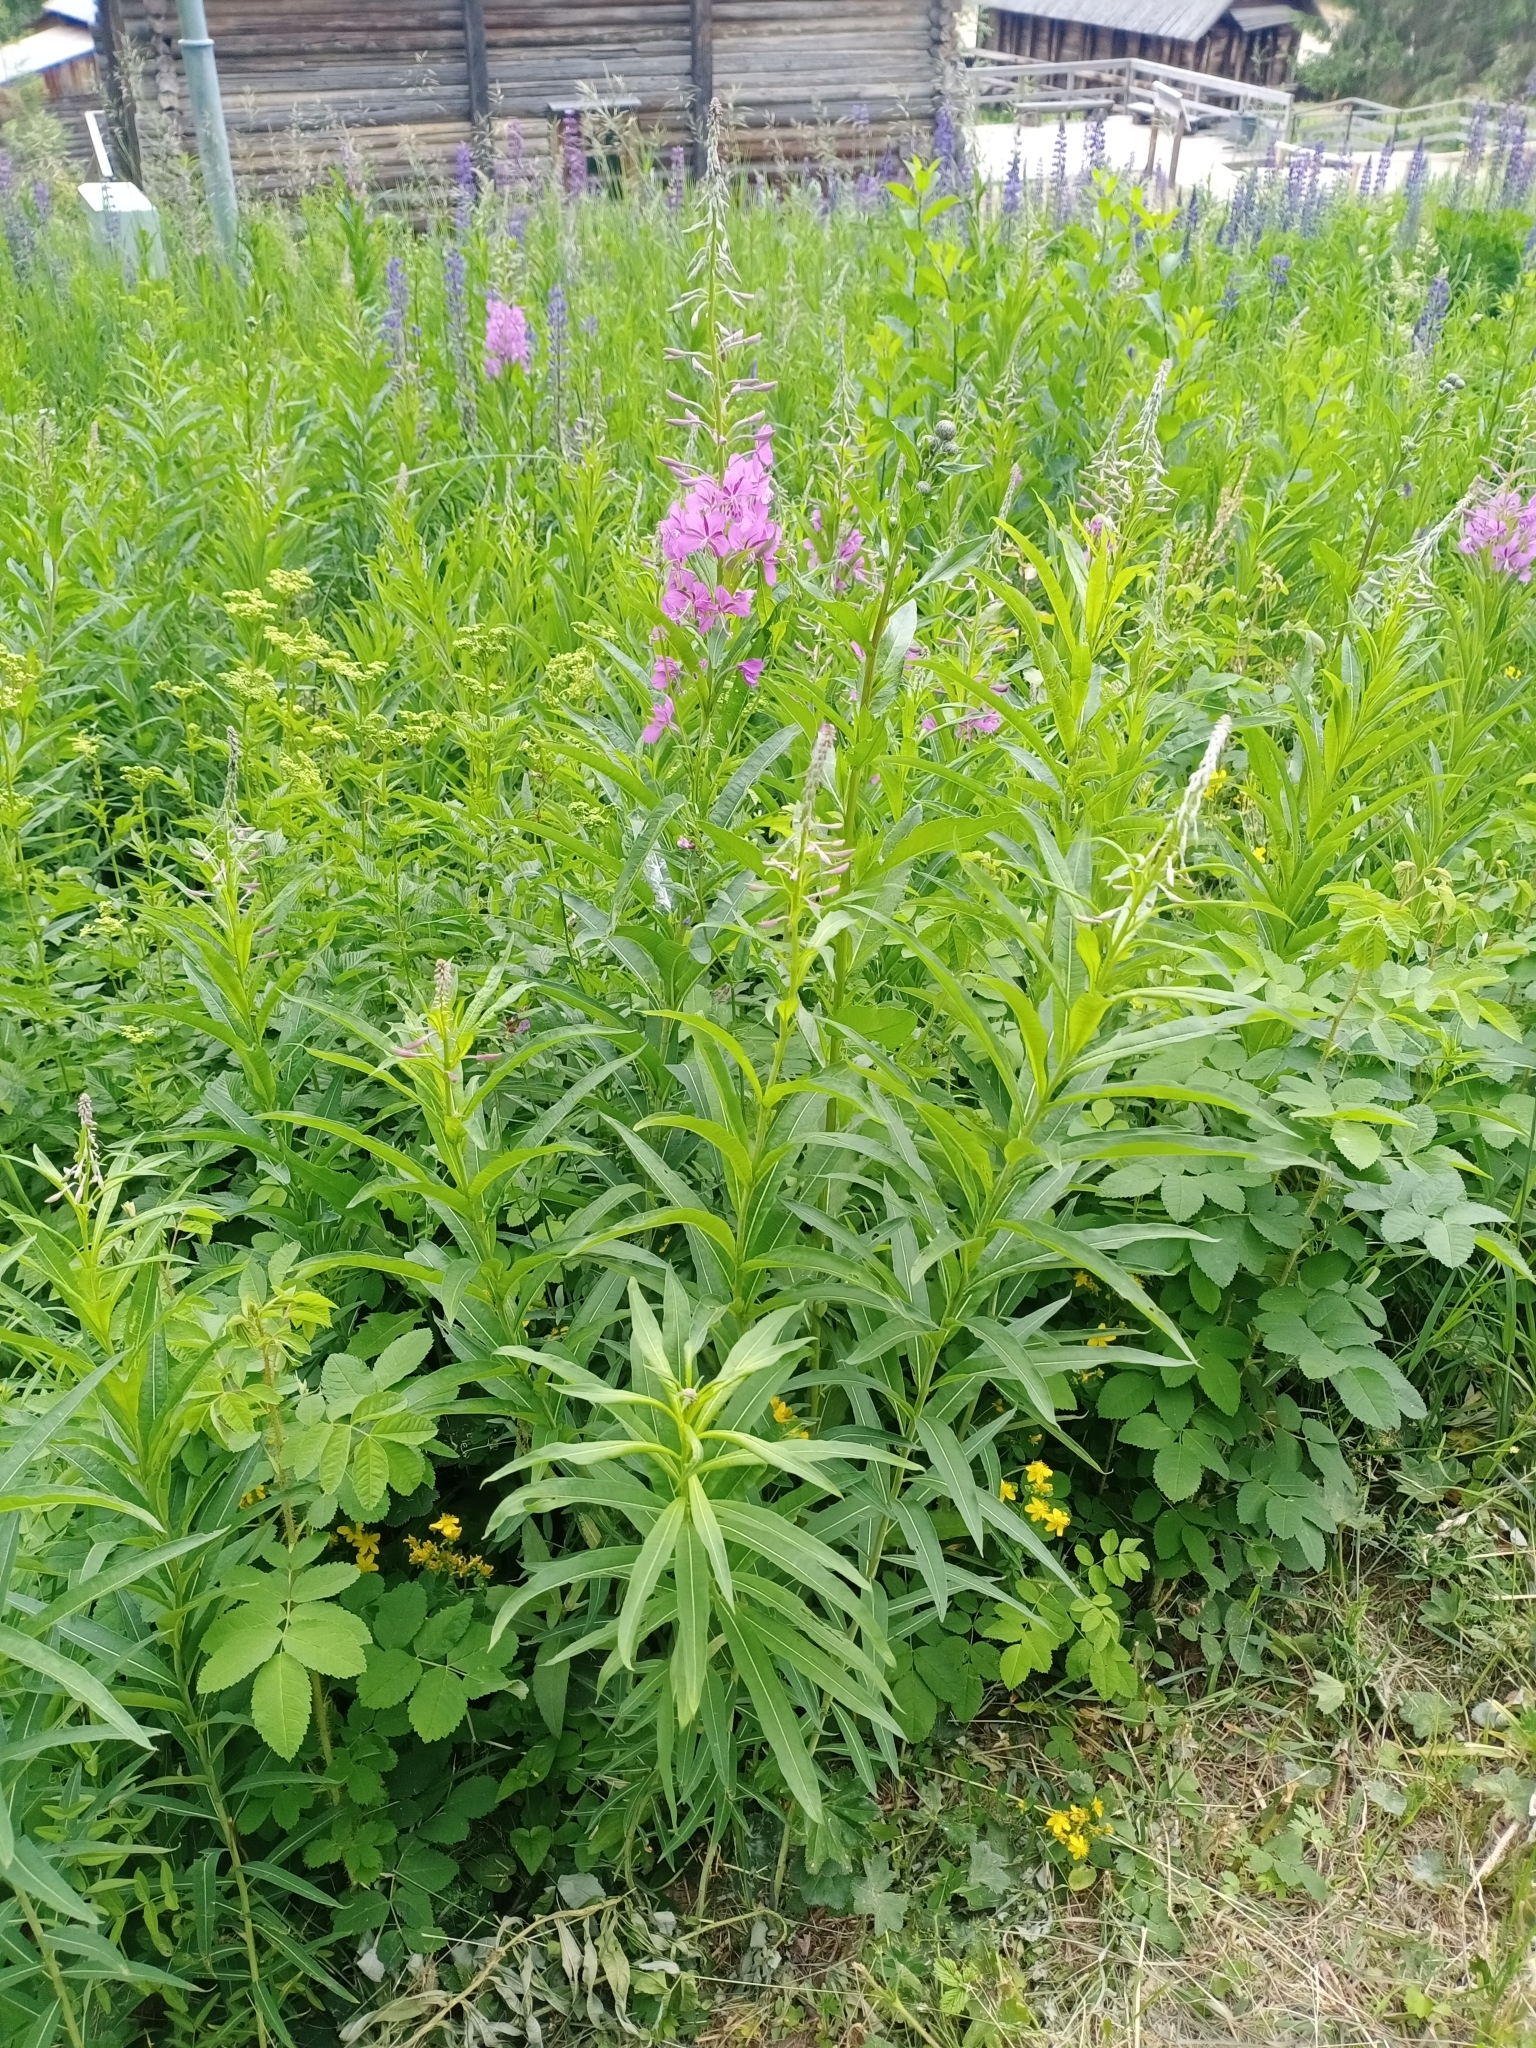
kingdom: Plantae
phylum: Tracheophyta
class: Magnoliopsida
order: Myrtales
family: Onagraceae
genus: Chamaenerion
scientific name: Chamaenerion angustifolium
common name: Fireweed
